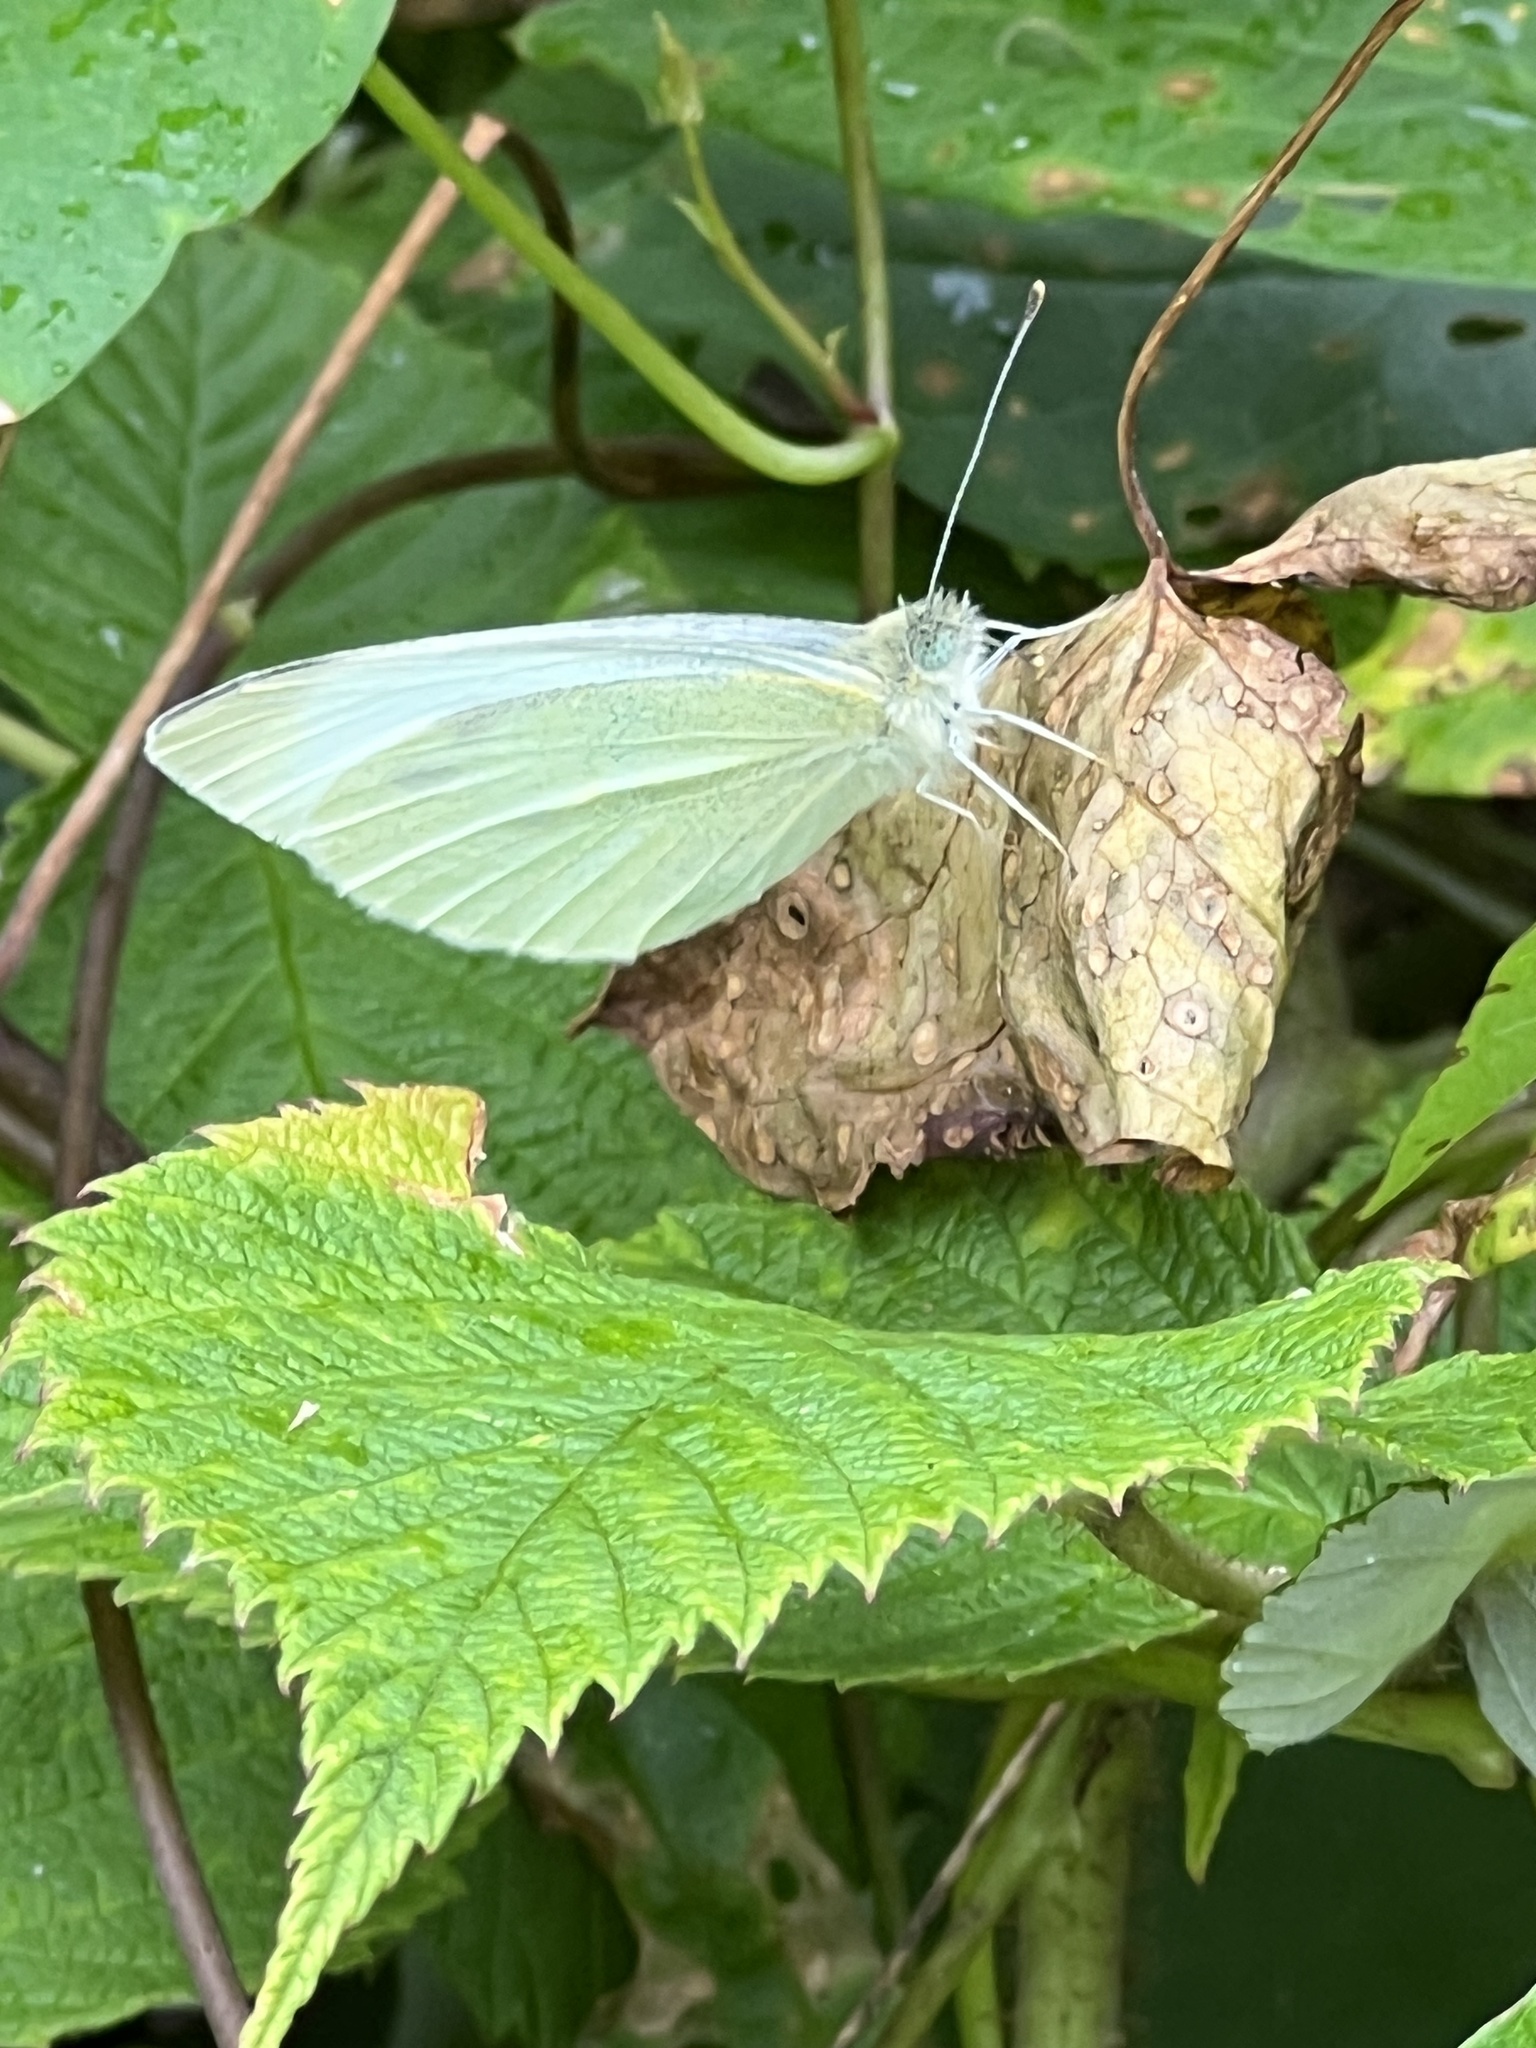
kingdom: Animalia
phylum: Arthropoda
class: Insecta
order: Lepidoptera
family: Pieridae
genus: Pieris
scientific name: Pieris rapae
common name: Small white
